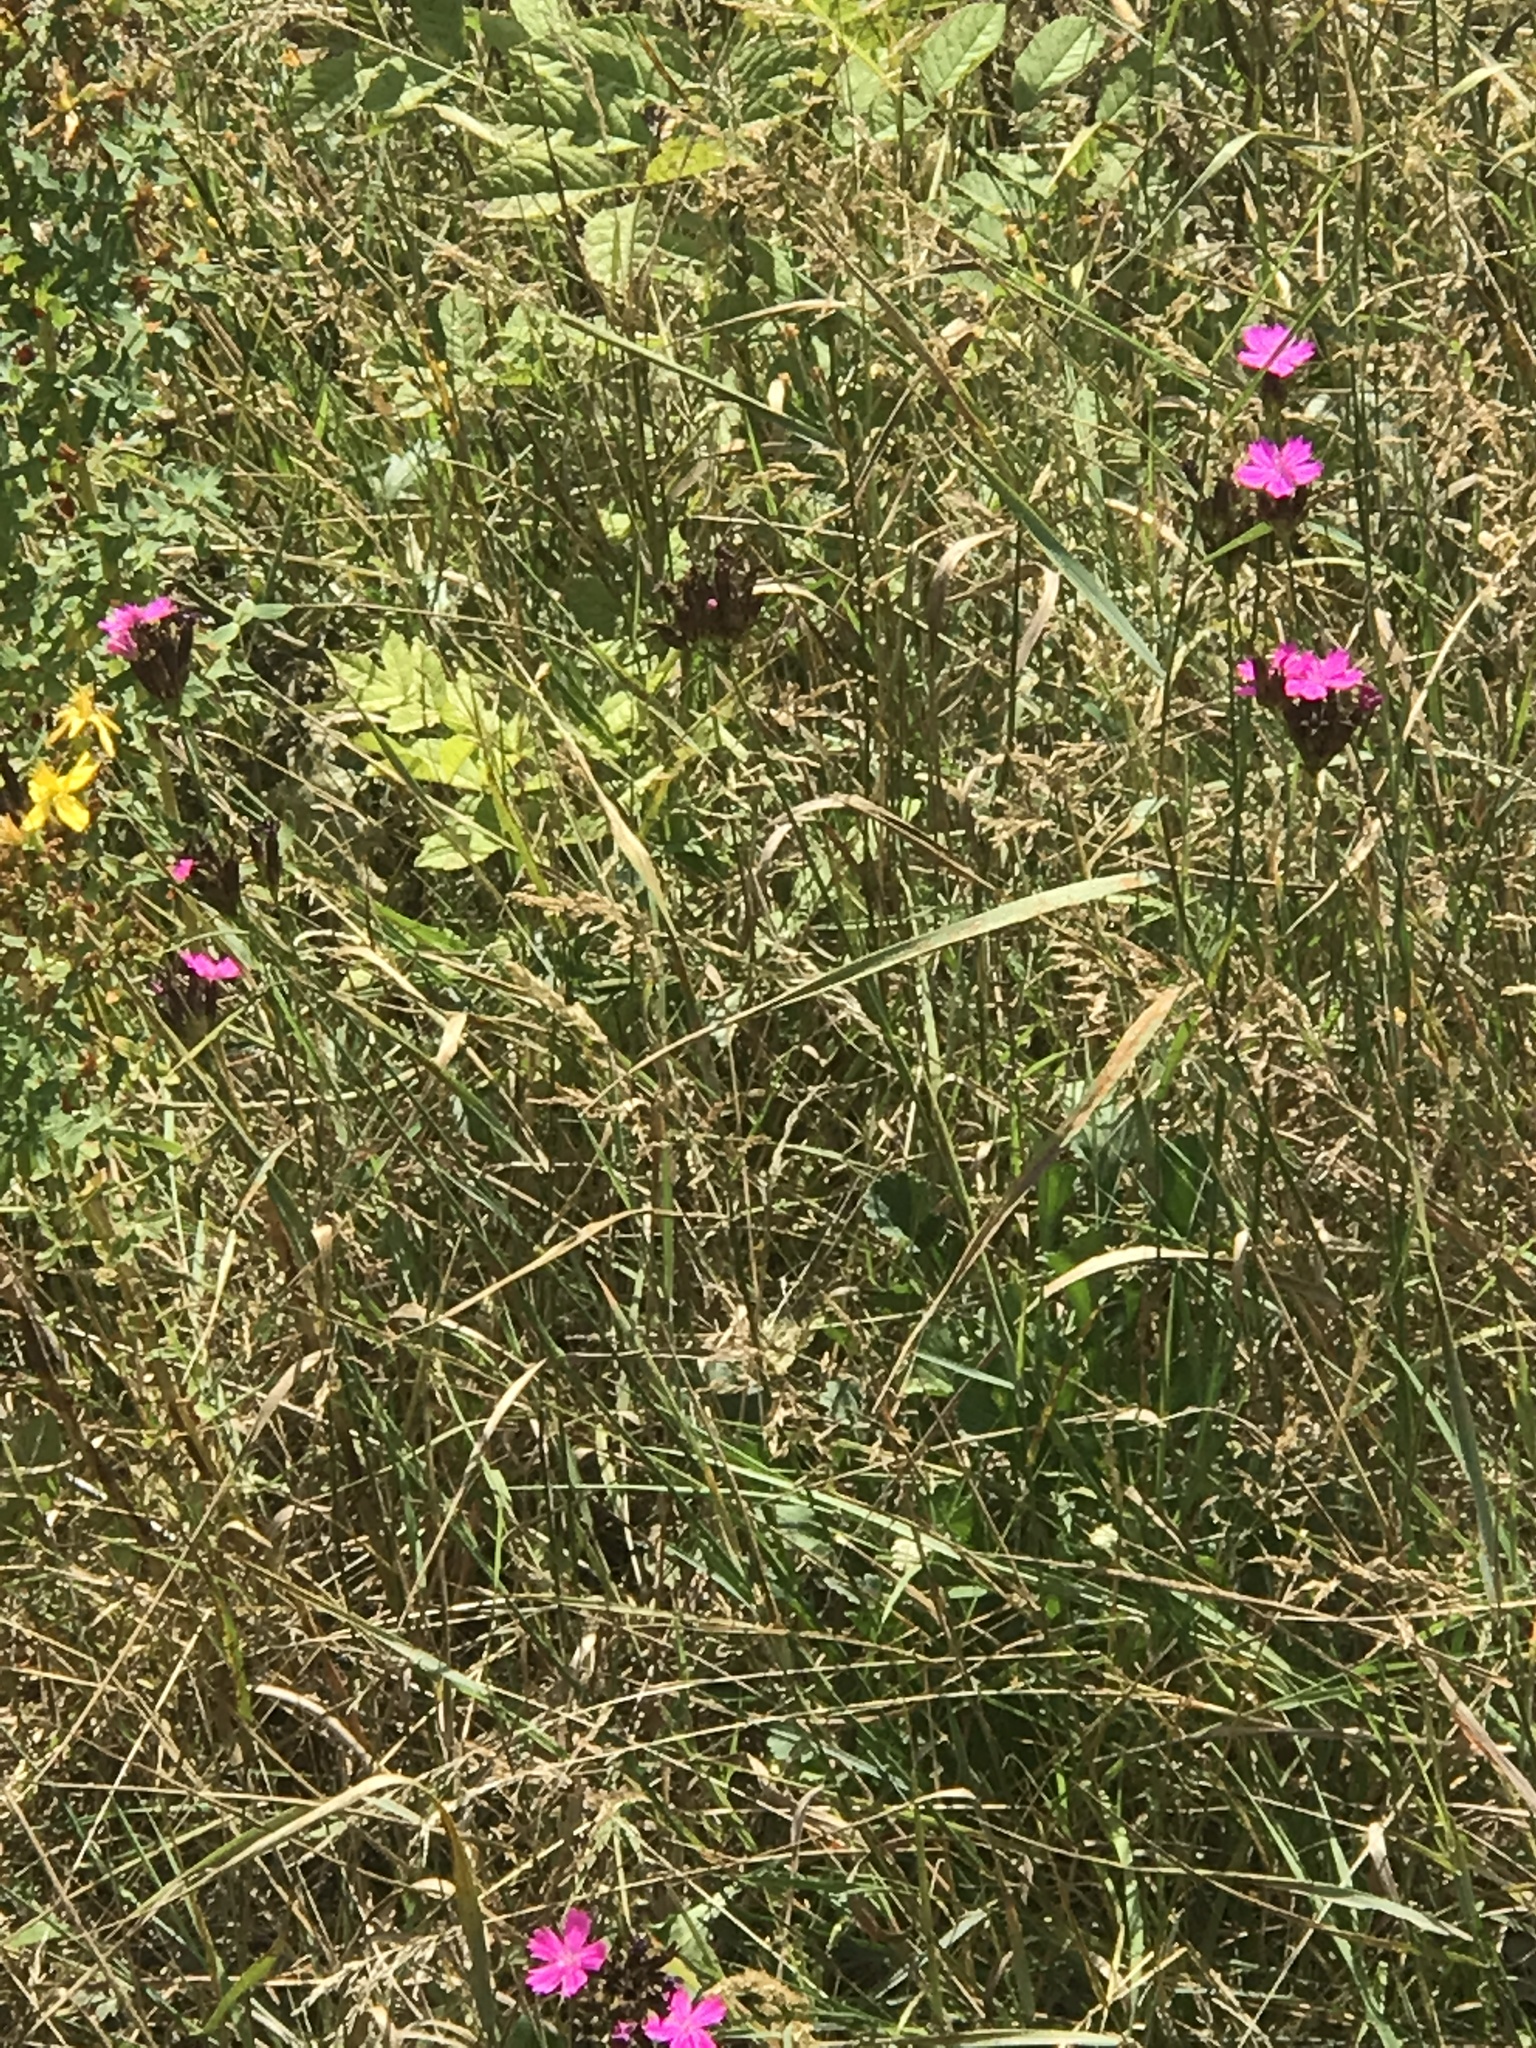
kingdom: Plantae
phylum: Tracheophyta
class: Magnoliopsida
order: Caryophyllales
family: Caryophyllaceae
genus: Dianthus
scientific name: Dianthus carthusianorum
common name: Carthusian pink
